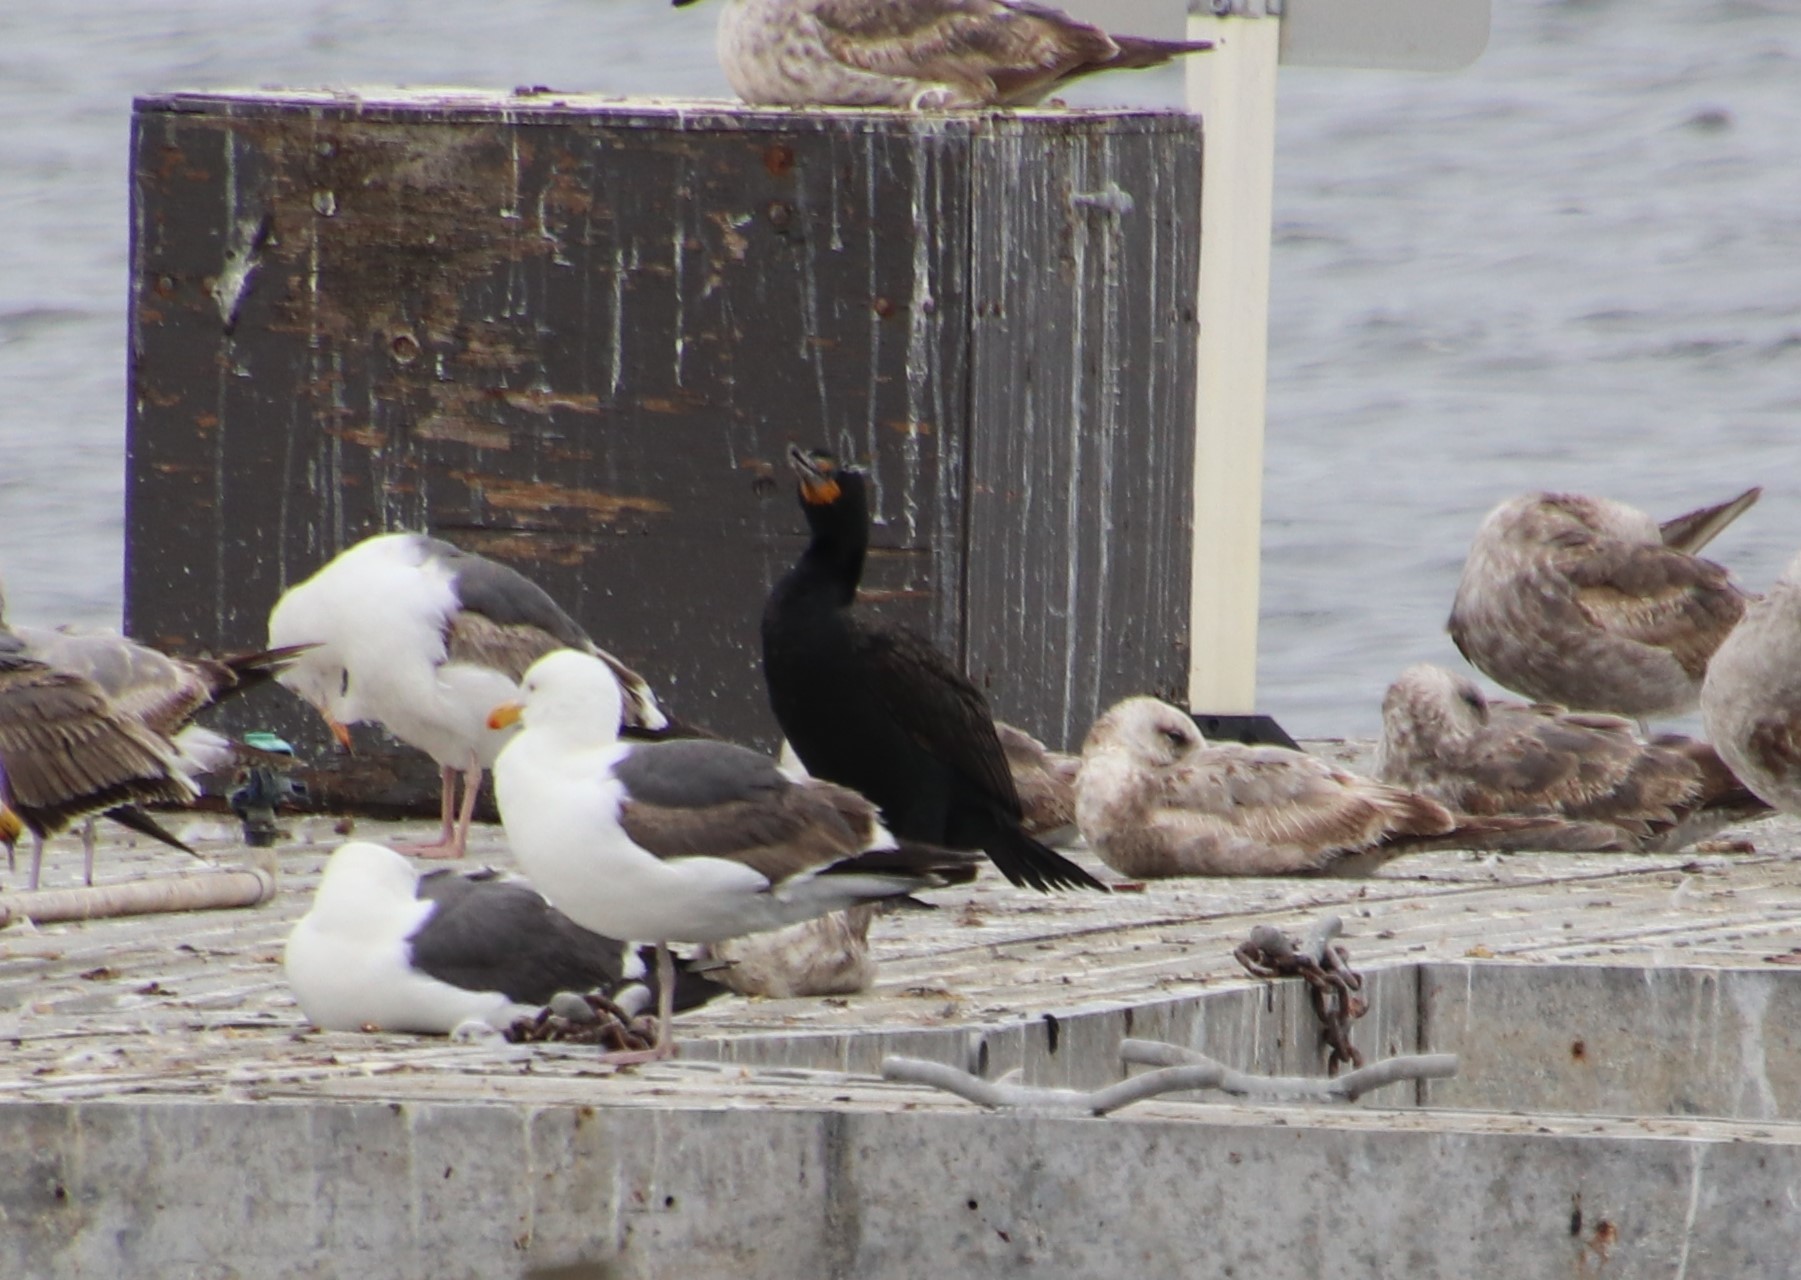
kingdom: Animalia
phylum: Chordata
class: Aves
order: Suliformes
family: Phalacrocoracidae
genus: Phalacrocorax
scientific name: Phalacrocorax auritus
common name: Double-crested cormorant
